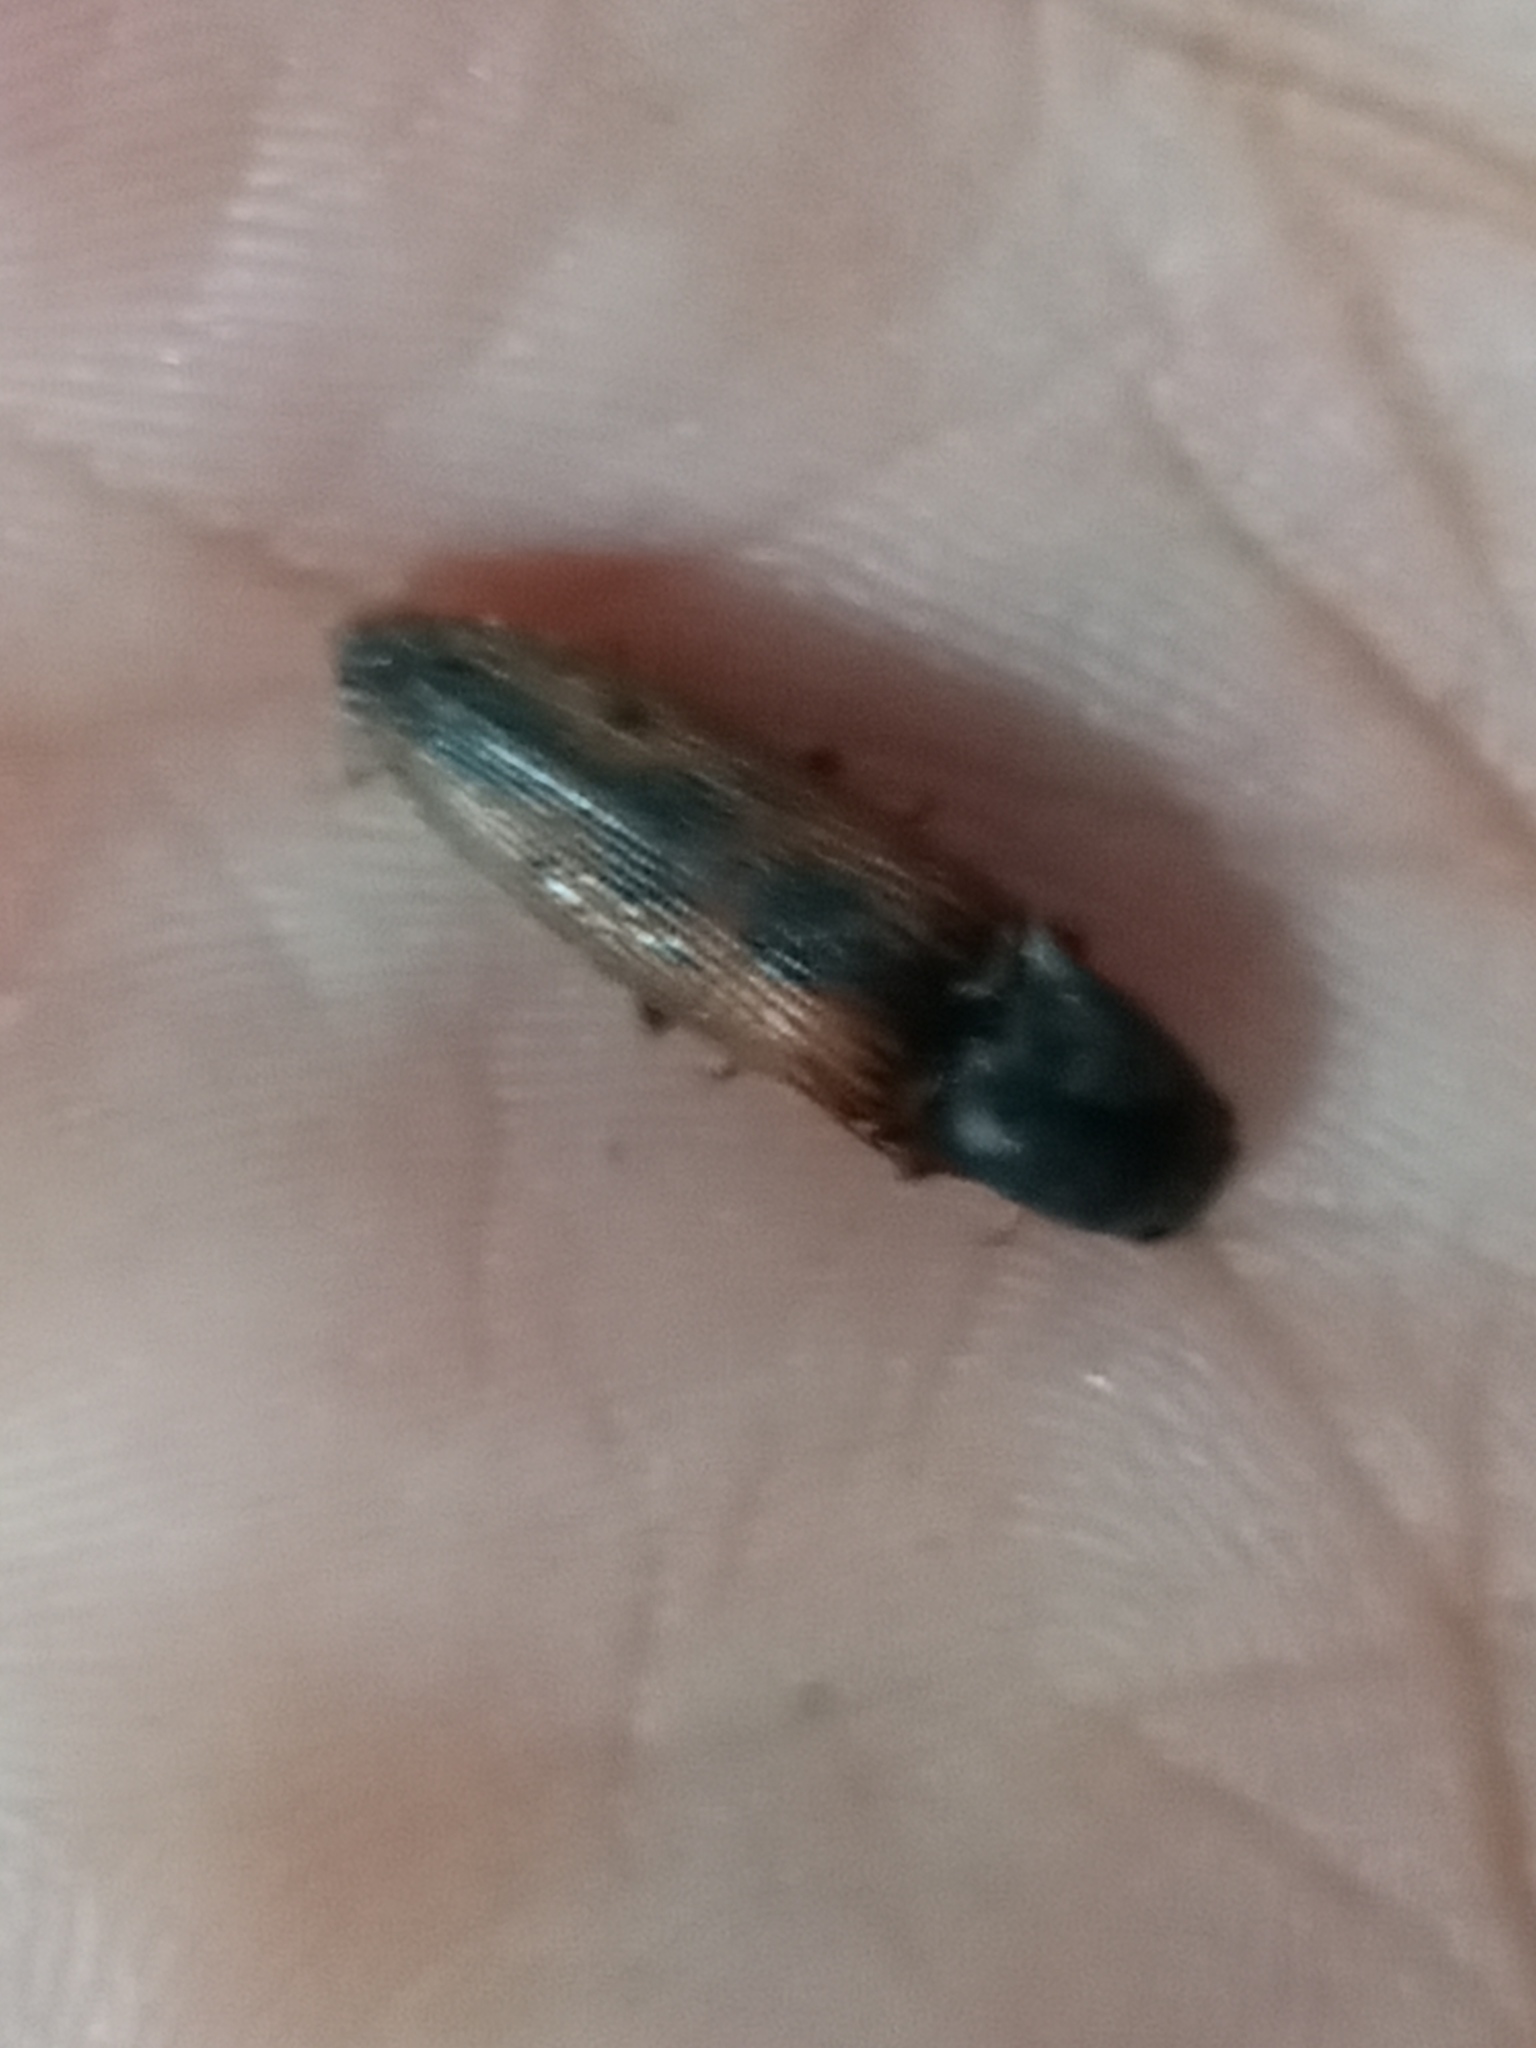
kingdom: Animalia
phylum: Arthropoda
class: Insecta
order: Coleoptera
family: Elateridae
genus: Monocrepidius
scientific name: Monocrepidius
